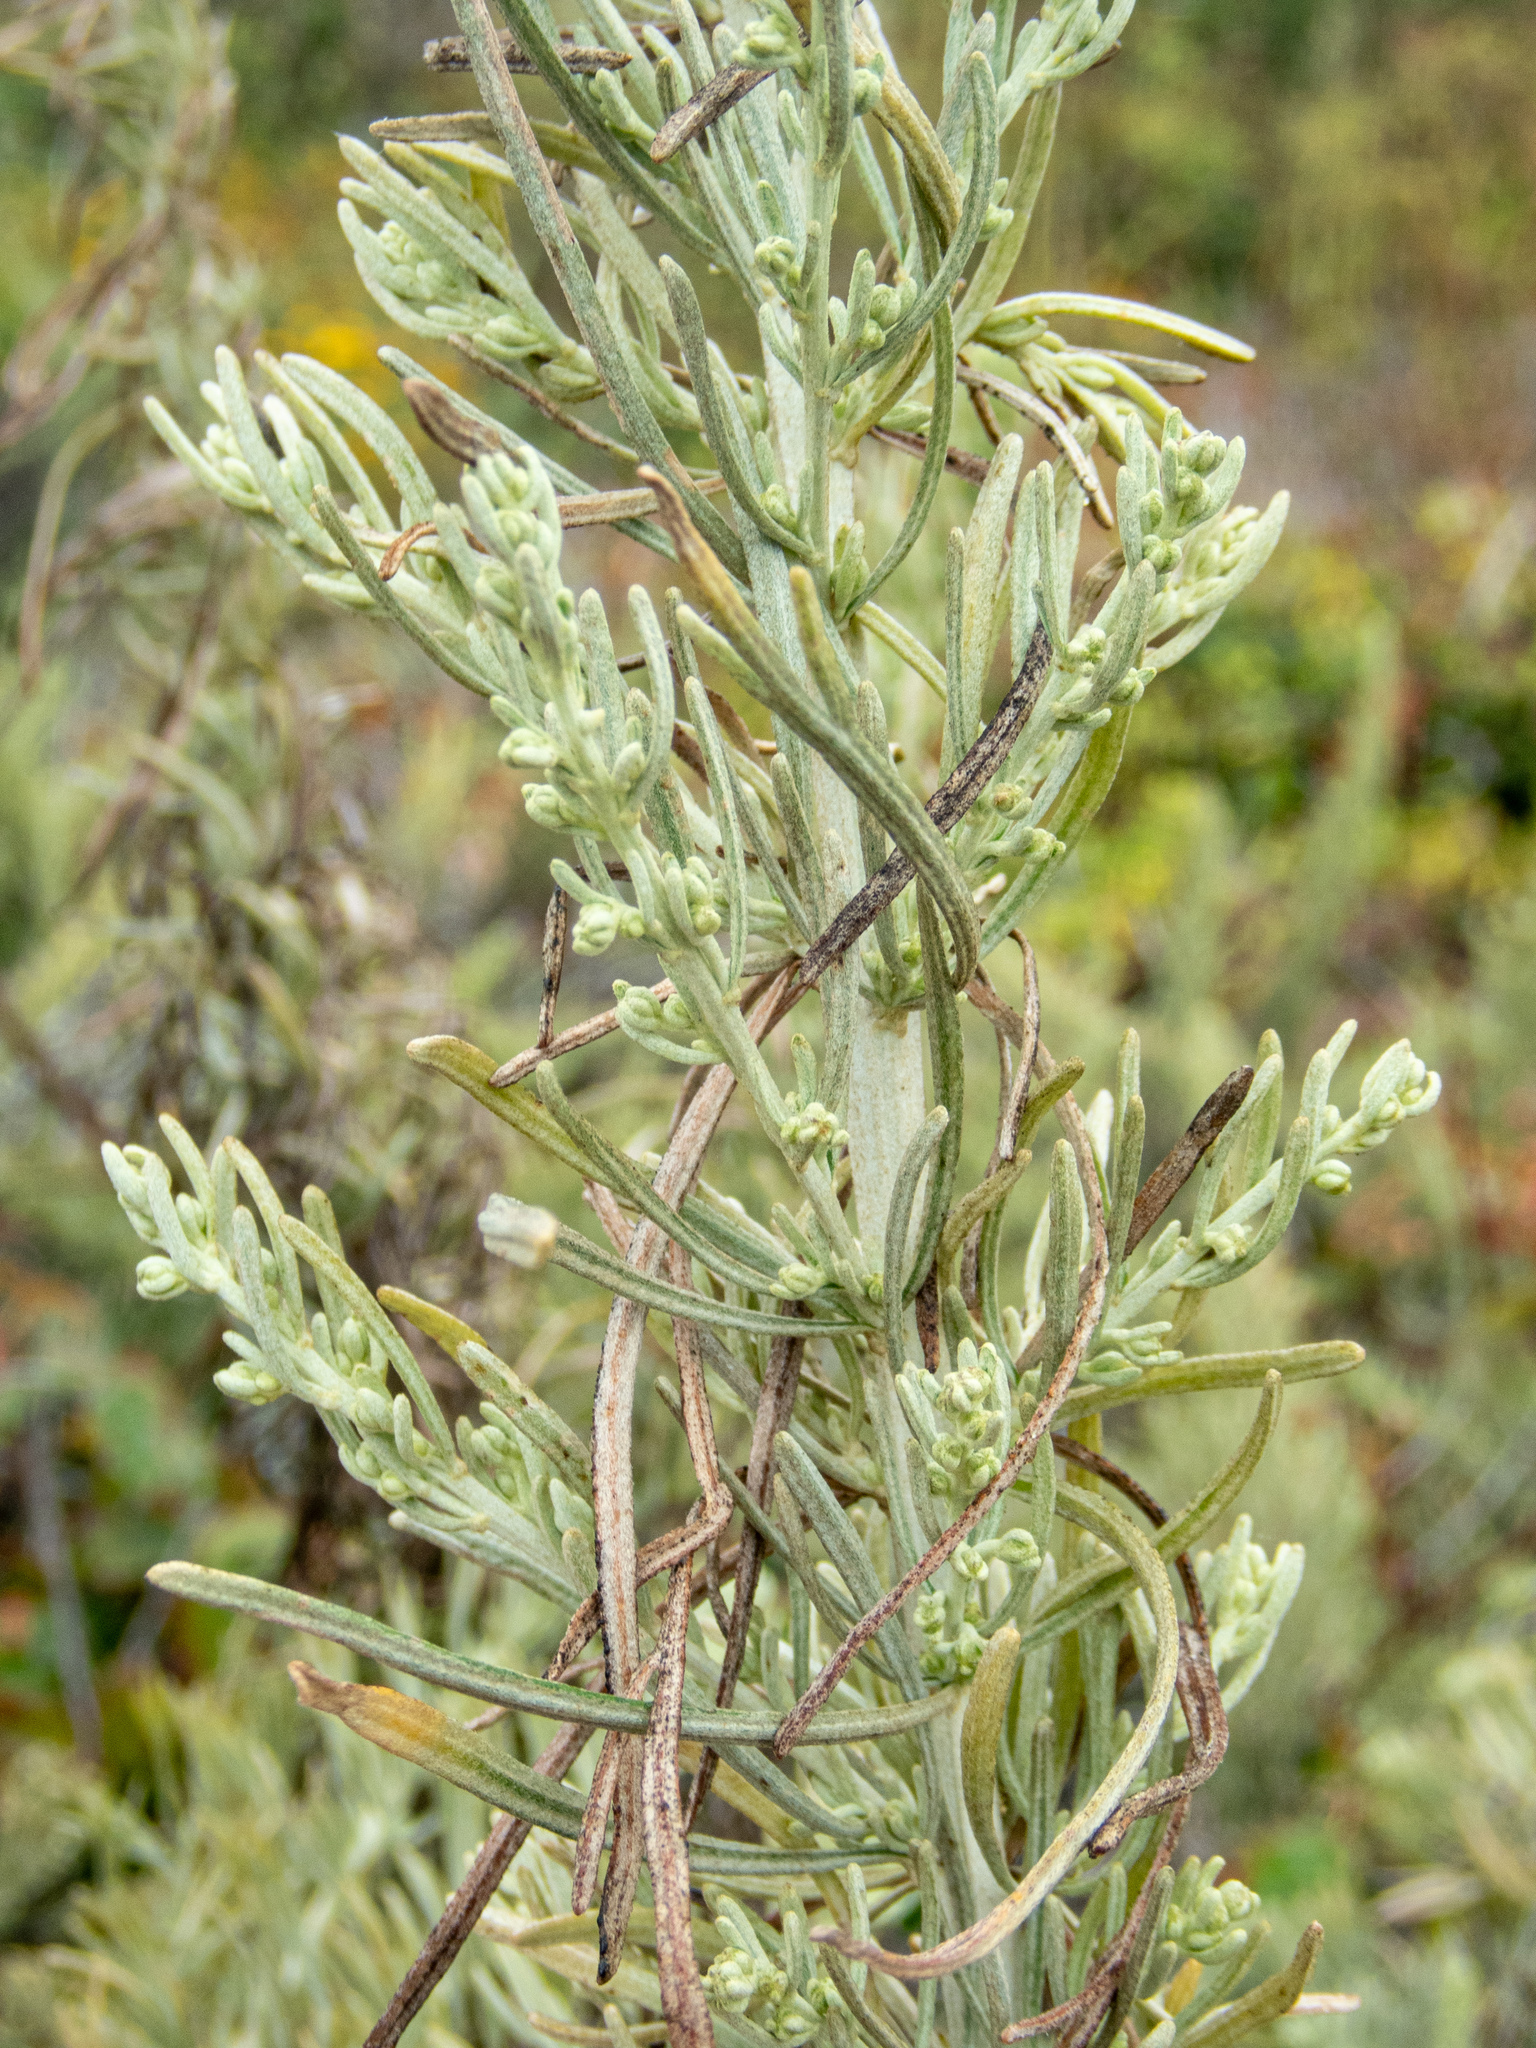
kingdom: Plantae
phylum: Tracheophyta
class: Magnoliopsida
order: Asterales
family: Asteraceae
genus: Artemisia
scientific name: Artemisia californica
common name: California sagebrush
